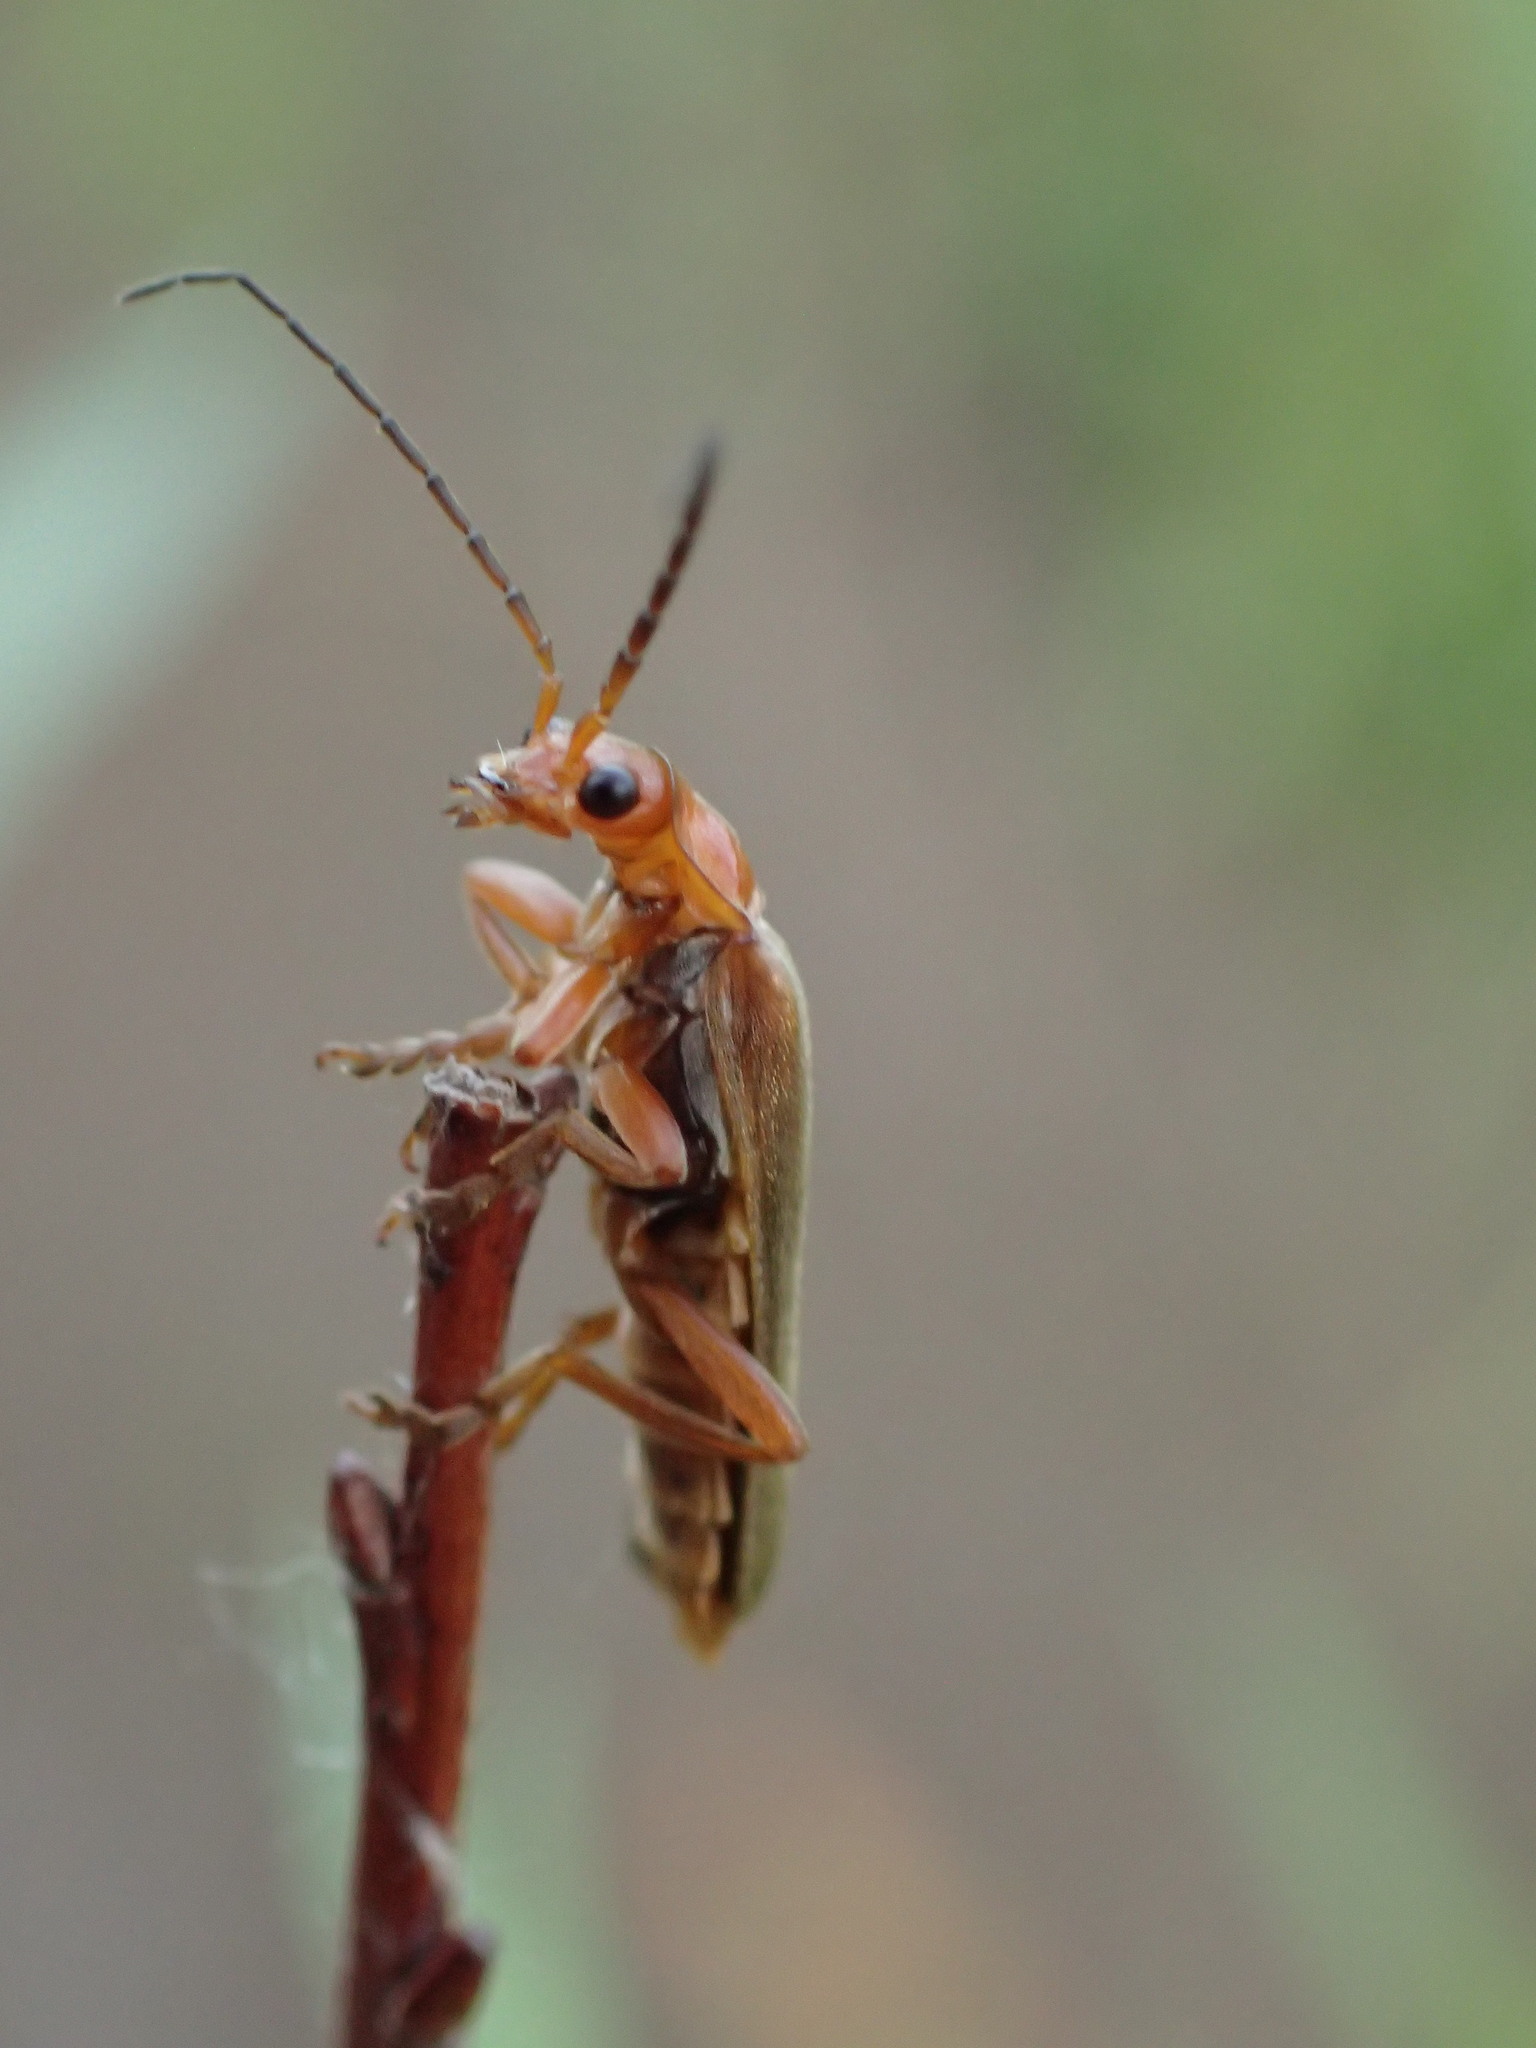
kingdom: Animalia
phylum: Arthropoda
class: Insecta
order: Coleoptera
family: Cantharidae
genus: Cantharis
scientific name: Cantharis rufa
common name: Red-spotted soldier beetle
